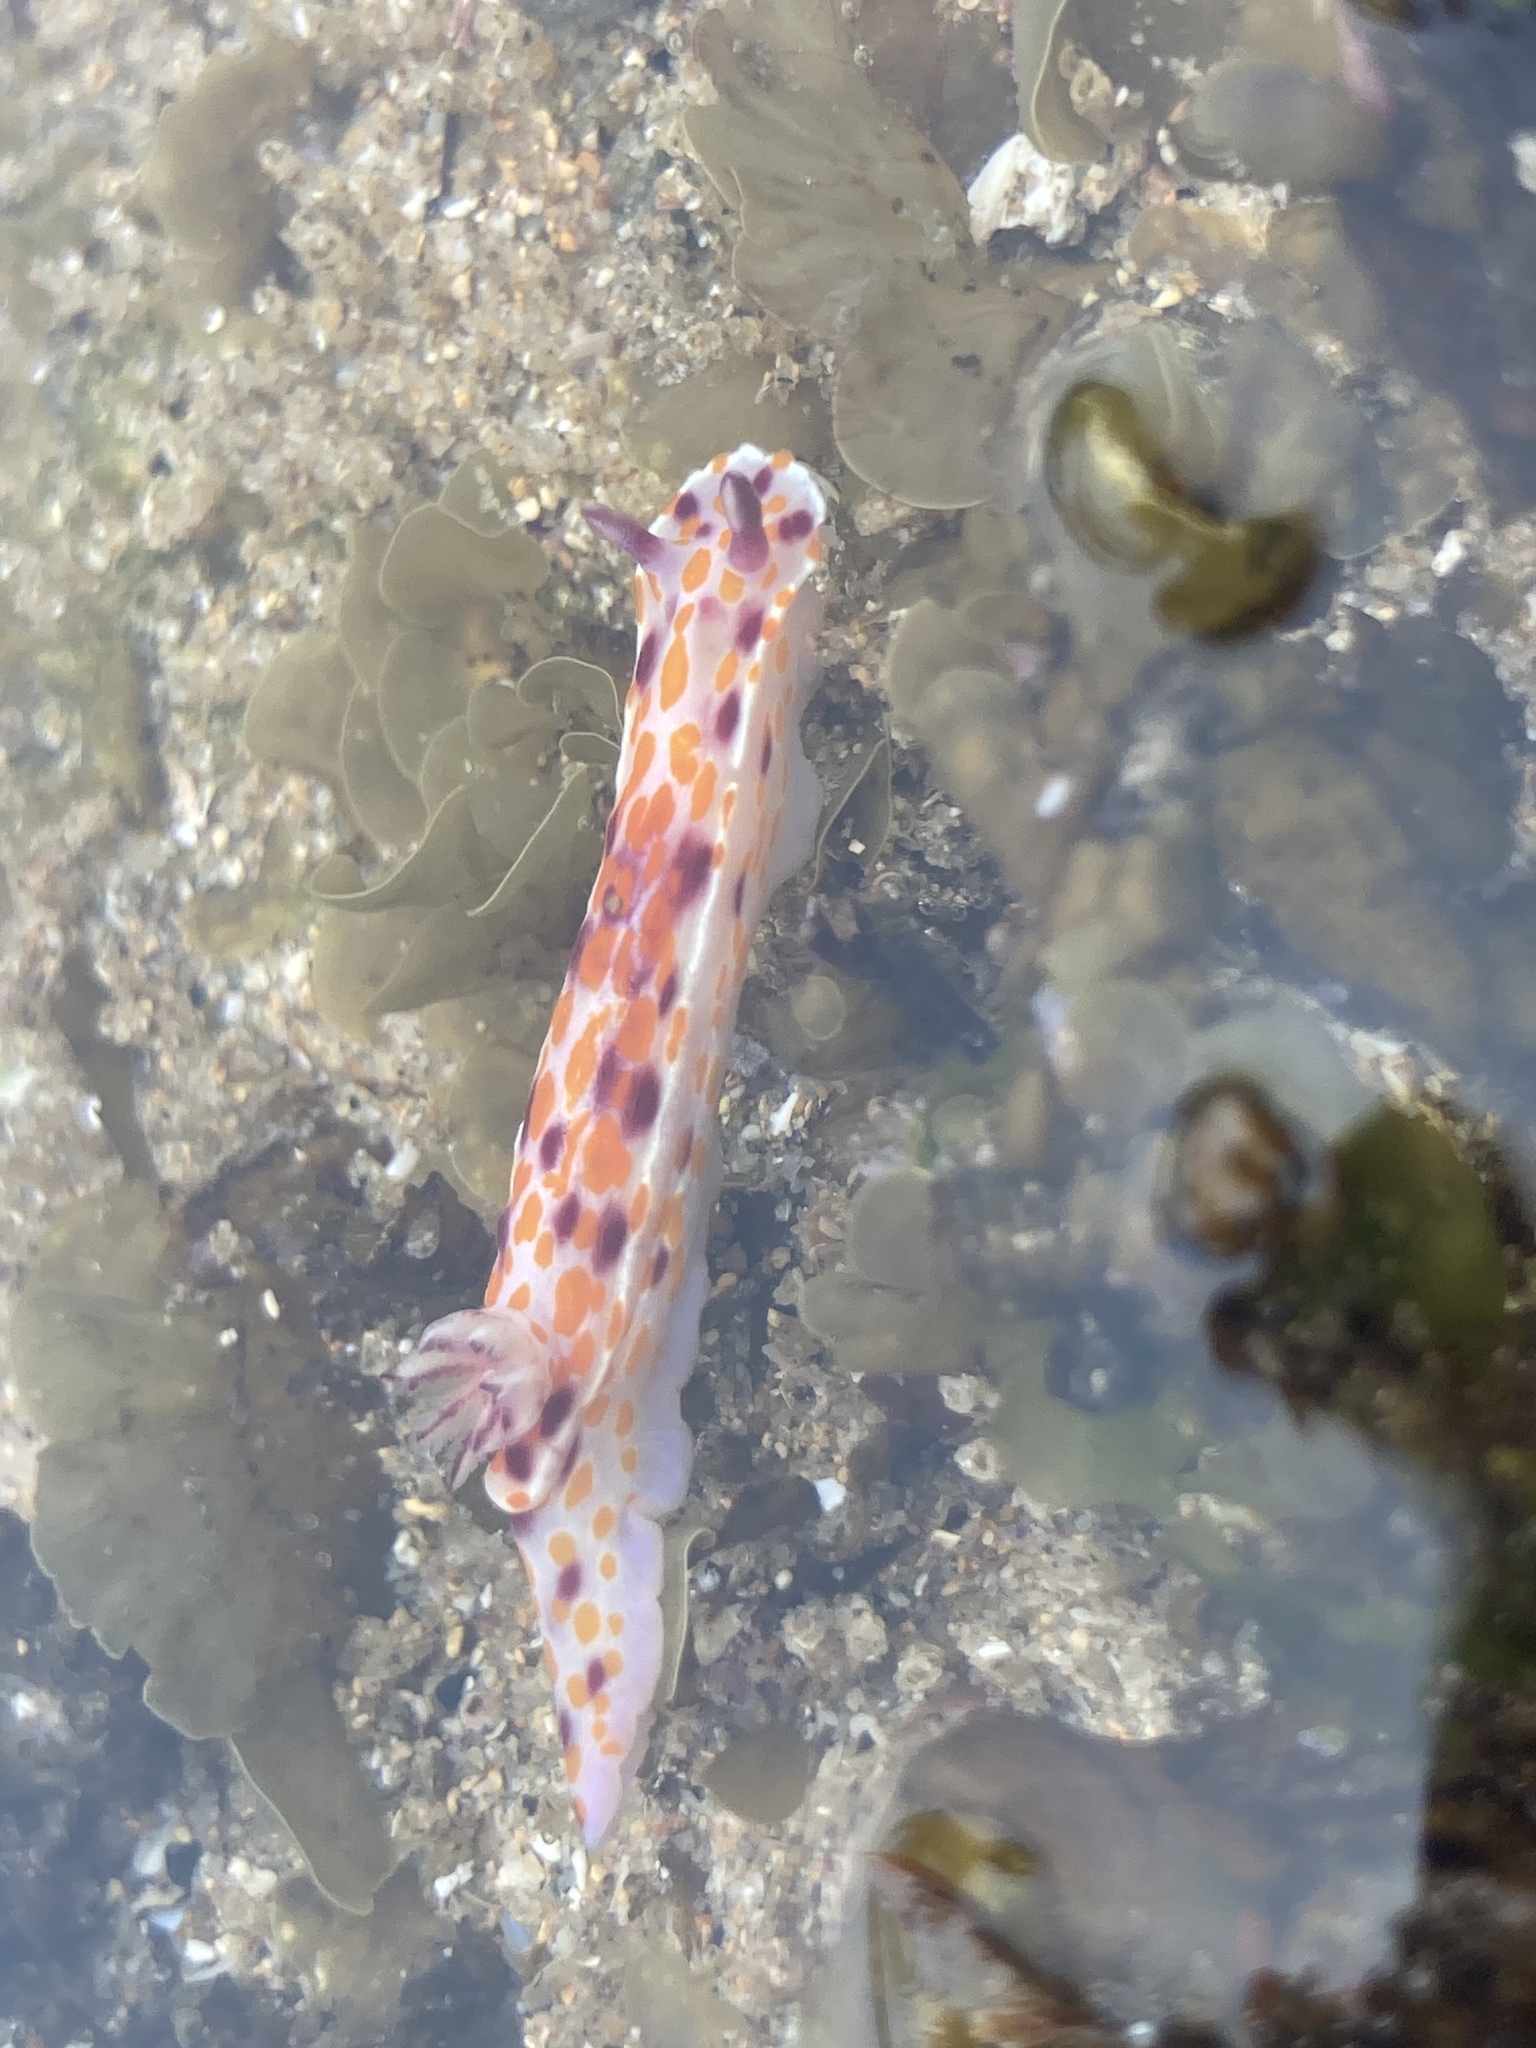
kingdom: Animalia
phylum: Mollusca
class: Gastropoda
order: Nudibranchia
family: Chromodorididae
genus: Ceratosoma
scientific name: Ceratosoma amoenum
